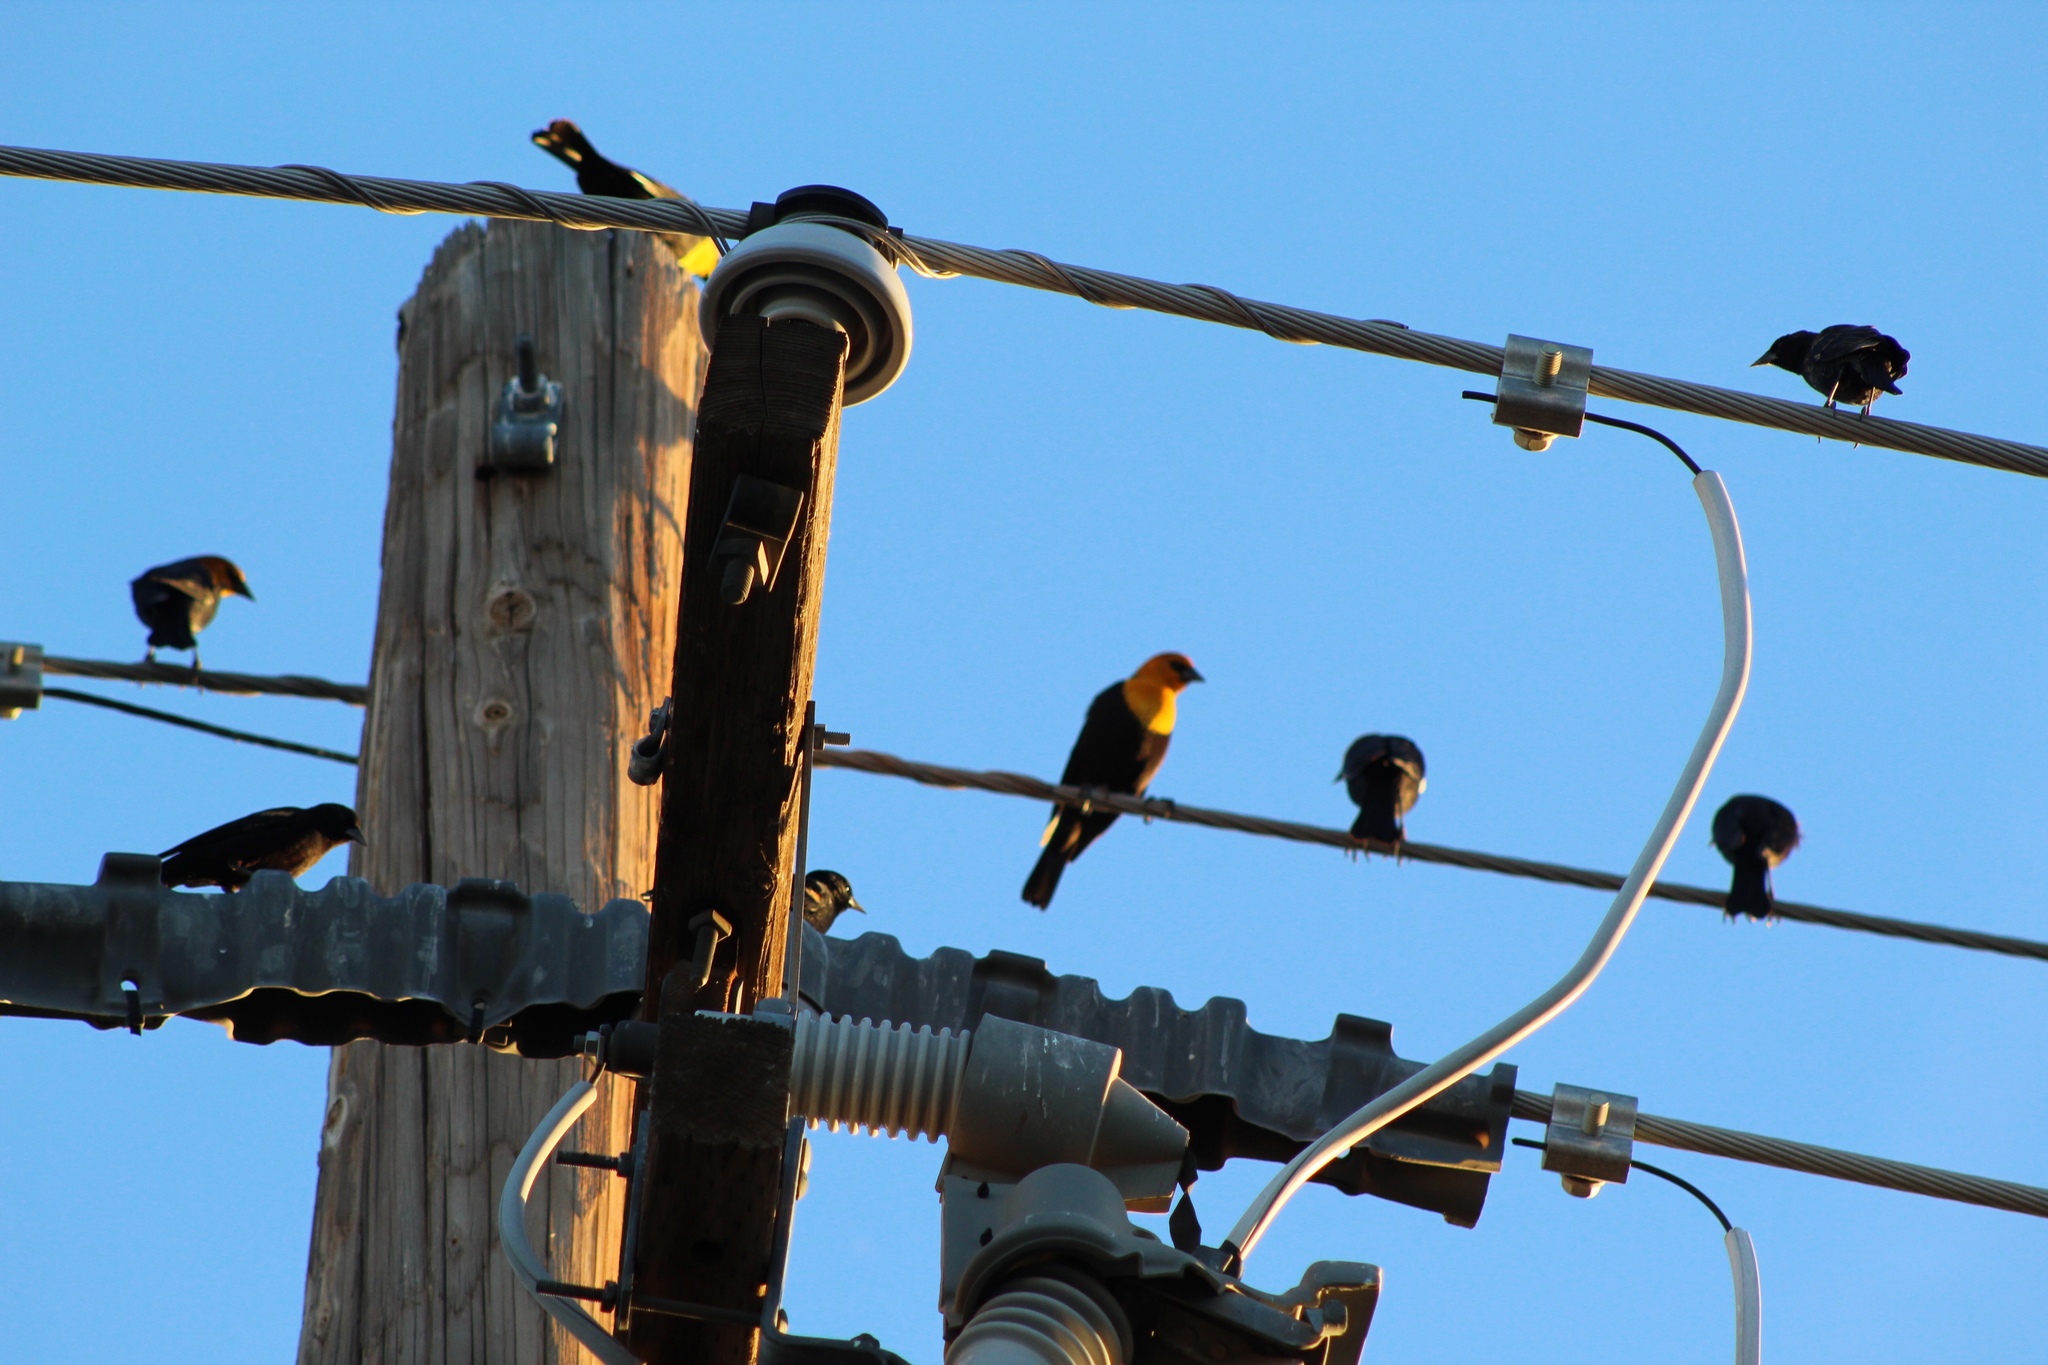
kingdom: Animalia
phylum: Chordata
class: Aves
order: Passeriformes
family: Icteridae
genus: Xanthocephalus
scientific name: Xanthocephalus xanthocephalus
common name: Yellow-headed blackbird
